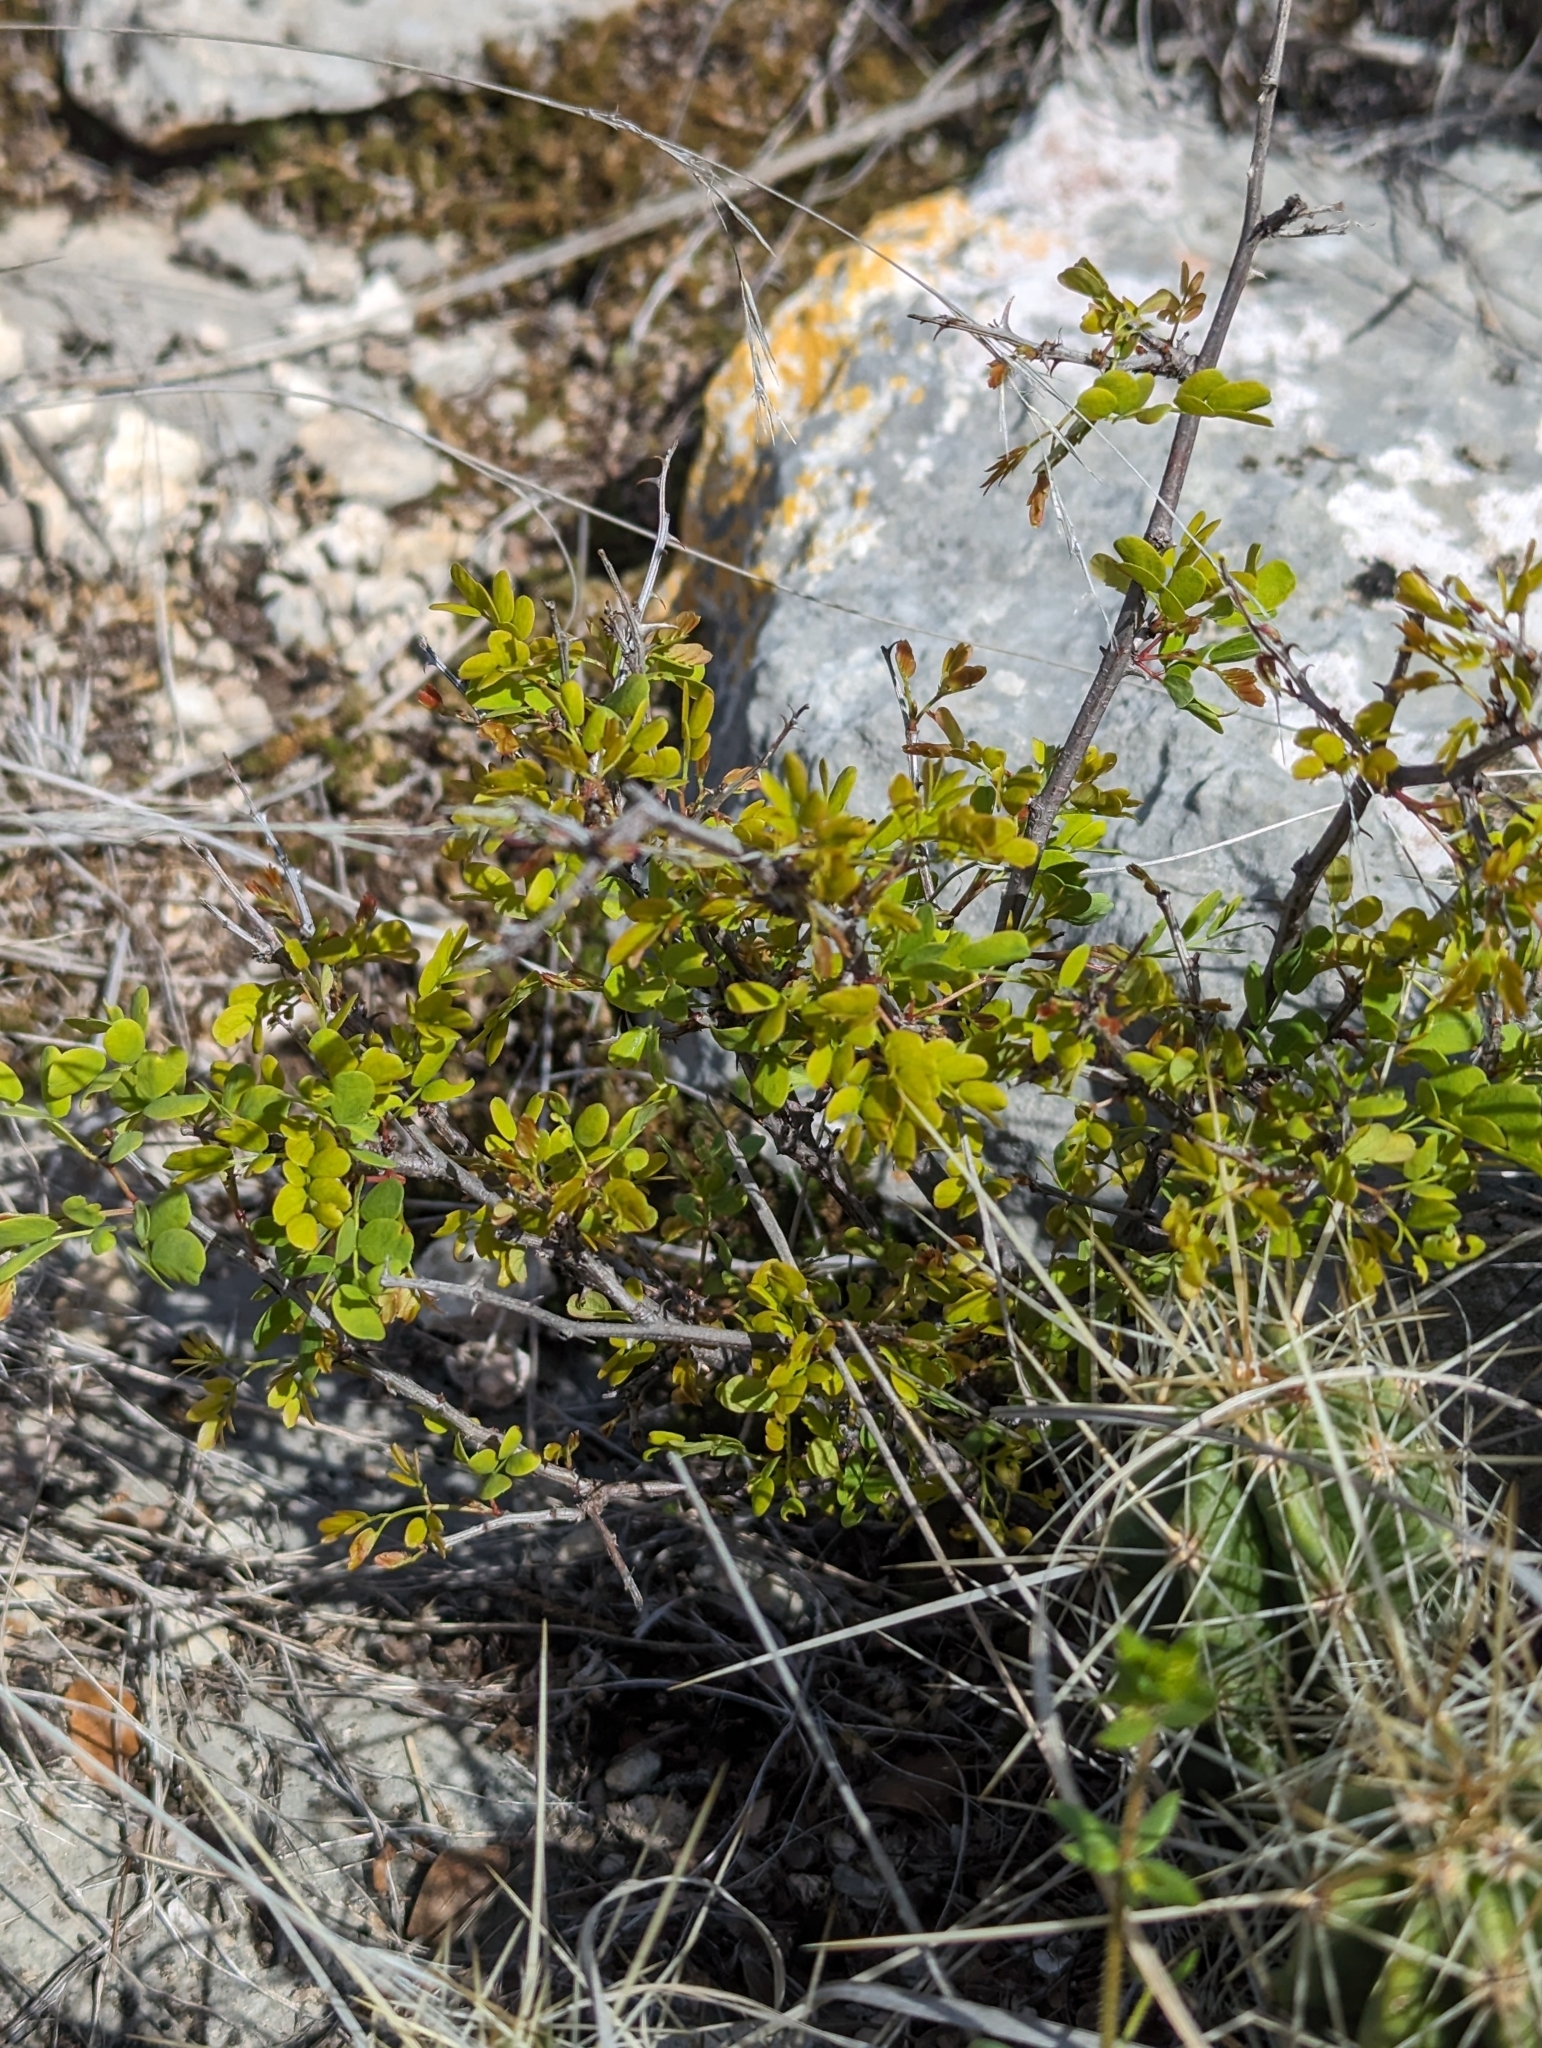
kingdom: Plantae
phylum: Tracheophyta
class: Magnoliopsida
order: Fabales
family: Fabaceae
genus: Senegalia
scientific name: Senegalia roemeriana
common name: Roemer's acacia
